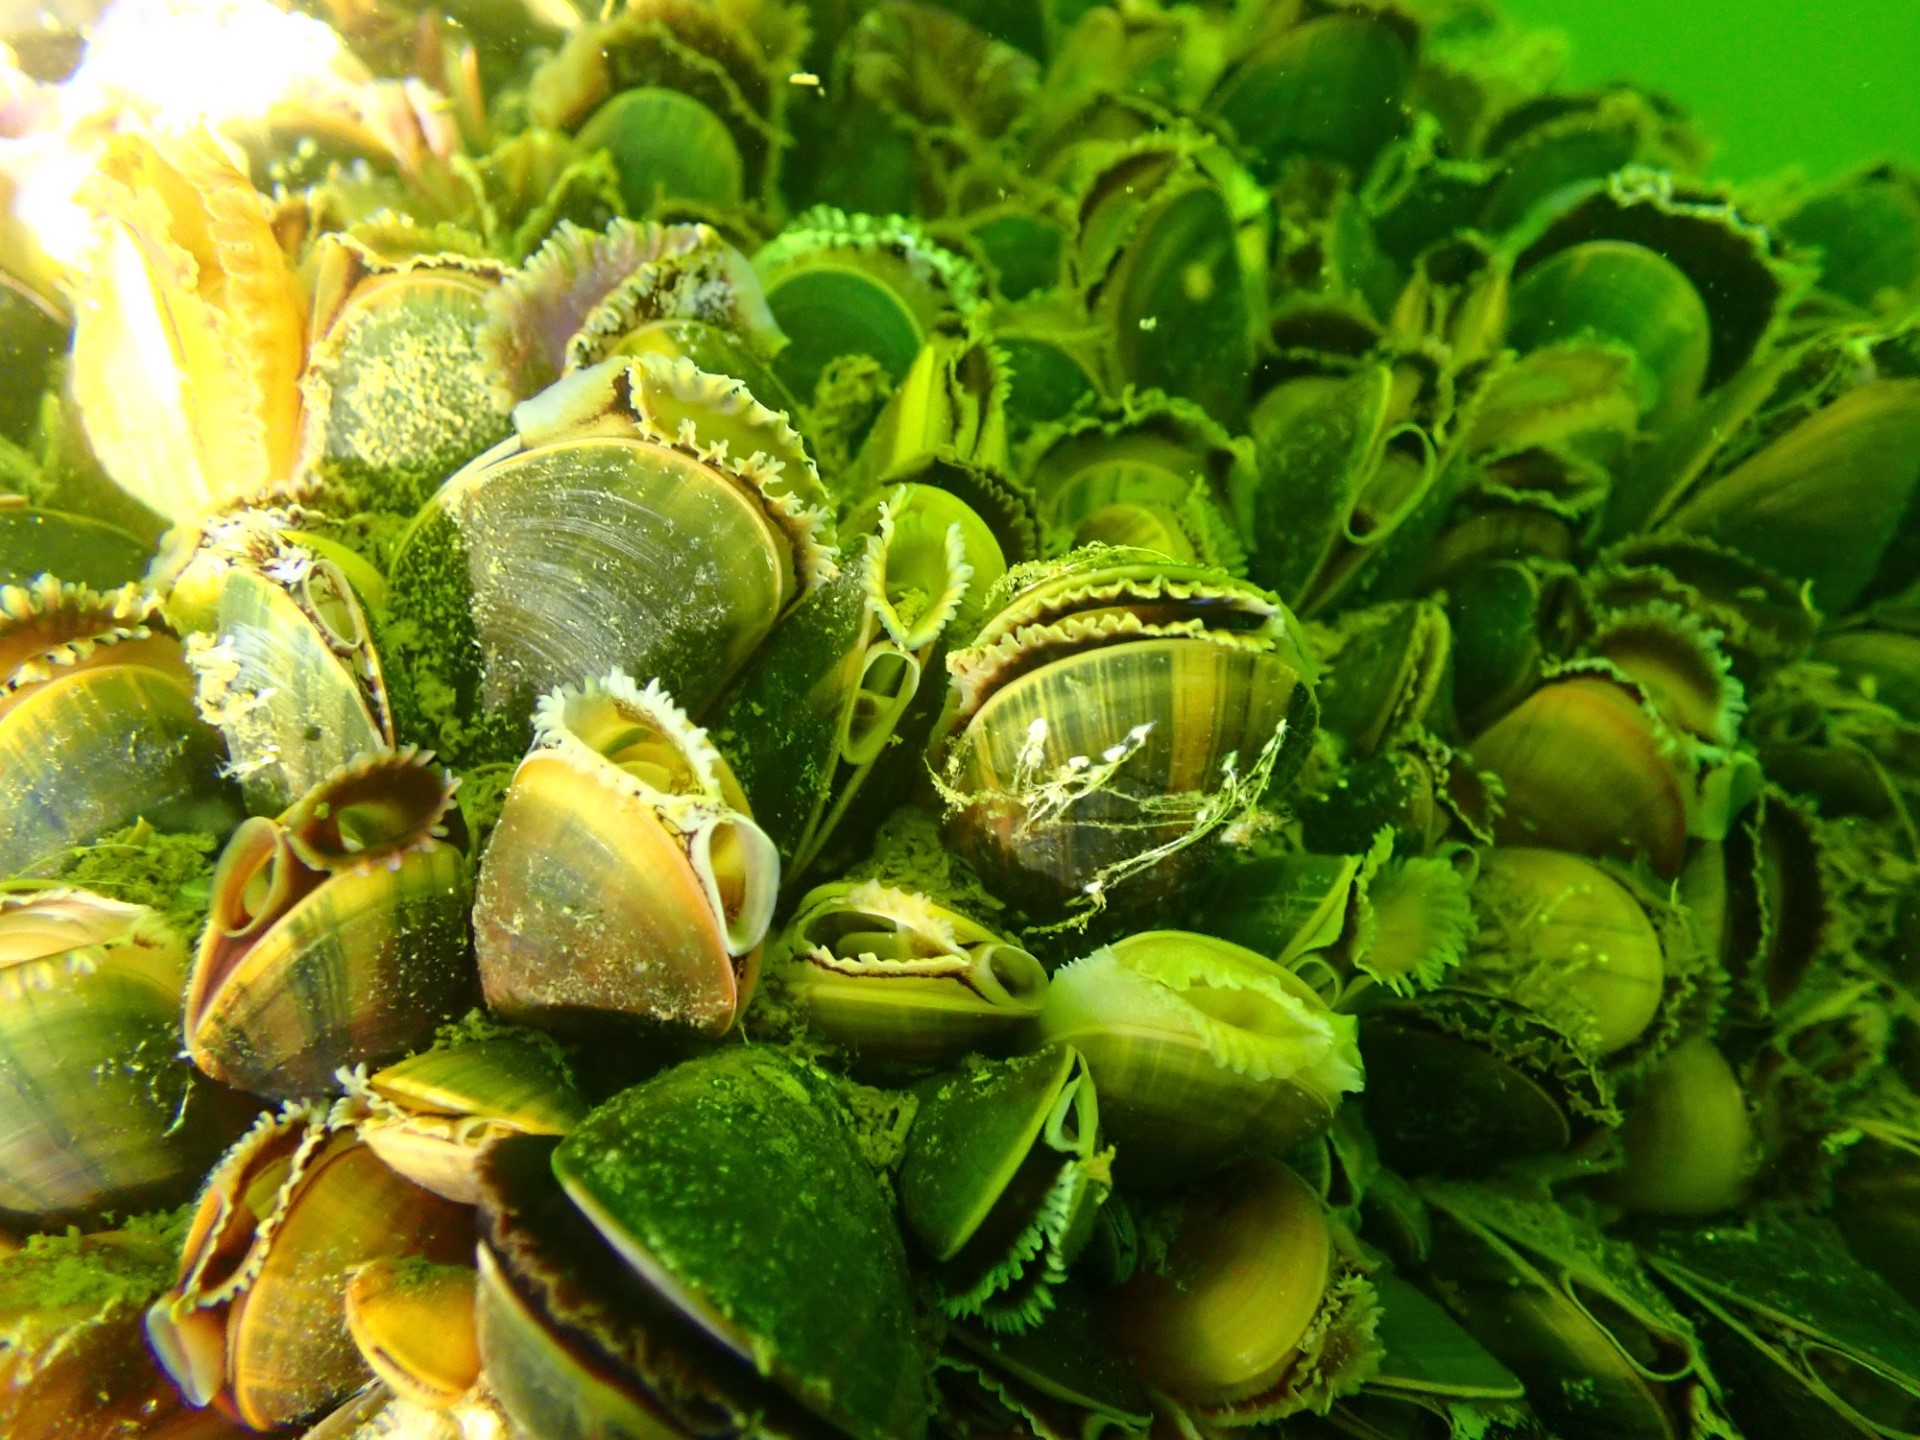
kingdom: Animalia
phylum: Mollusca
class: Bivalvia
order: Mytilida
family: Mytilidae
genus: Mytilus
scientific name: Mytilus edulis
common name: Blue mussel
